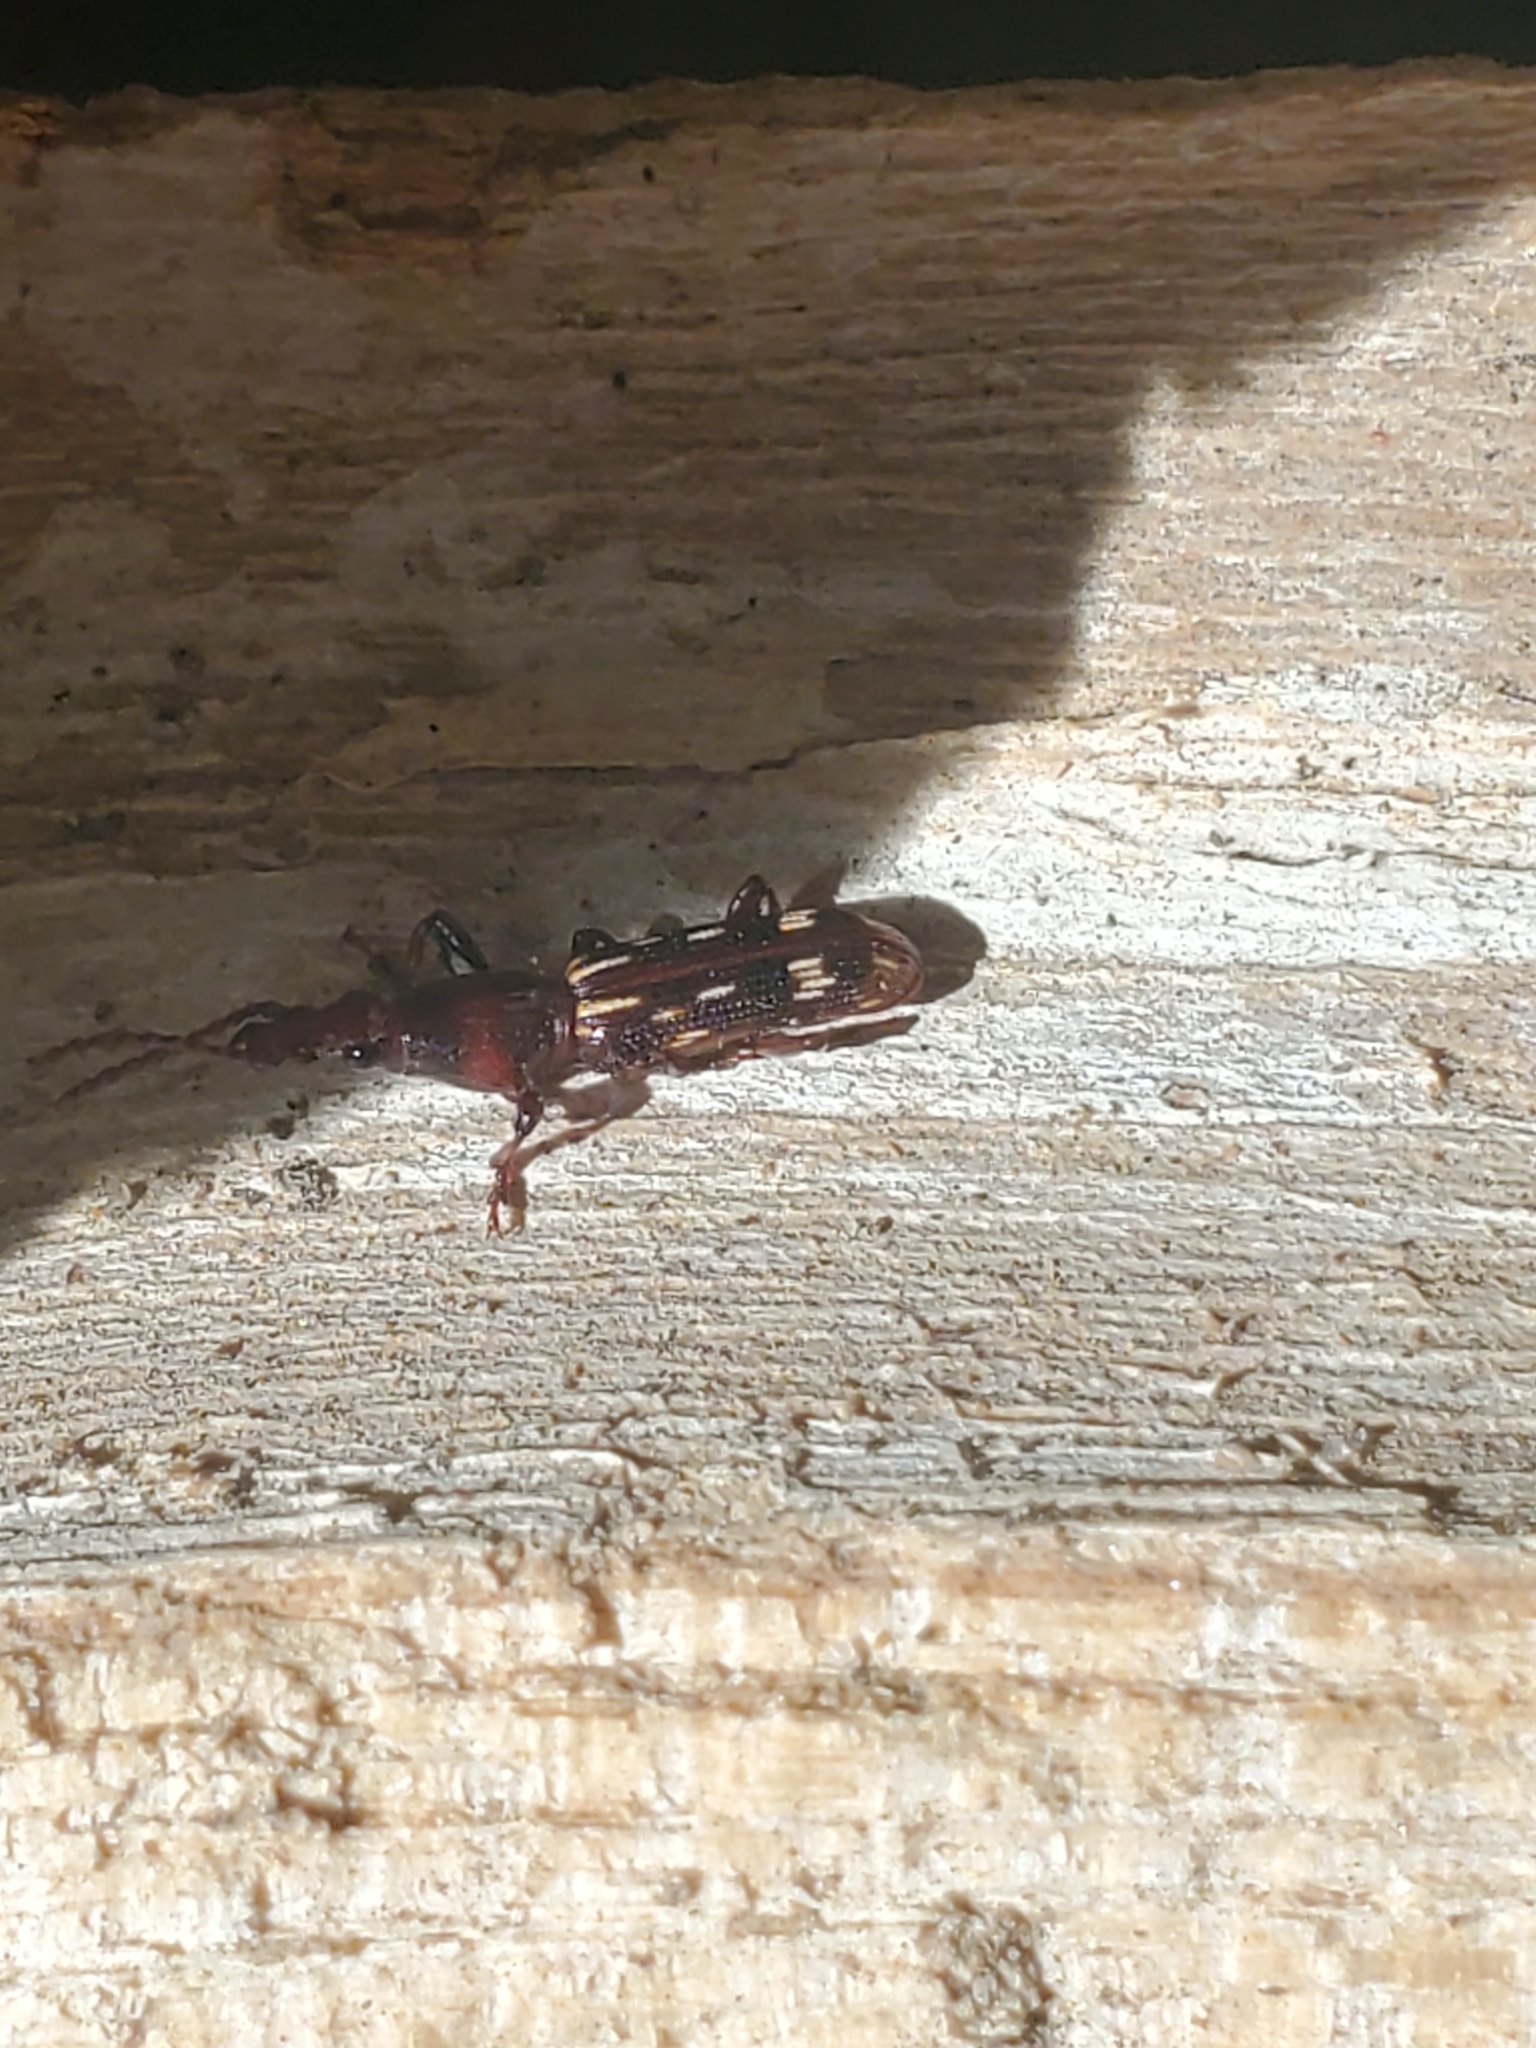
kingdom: Animalia
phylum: Arthropoda
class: Insecta
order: Coleoptera
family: Brentidae
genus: Arrenodes
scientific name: Arrenodes minutus
